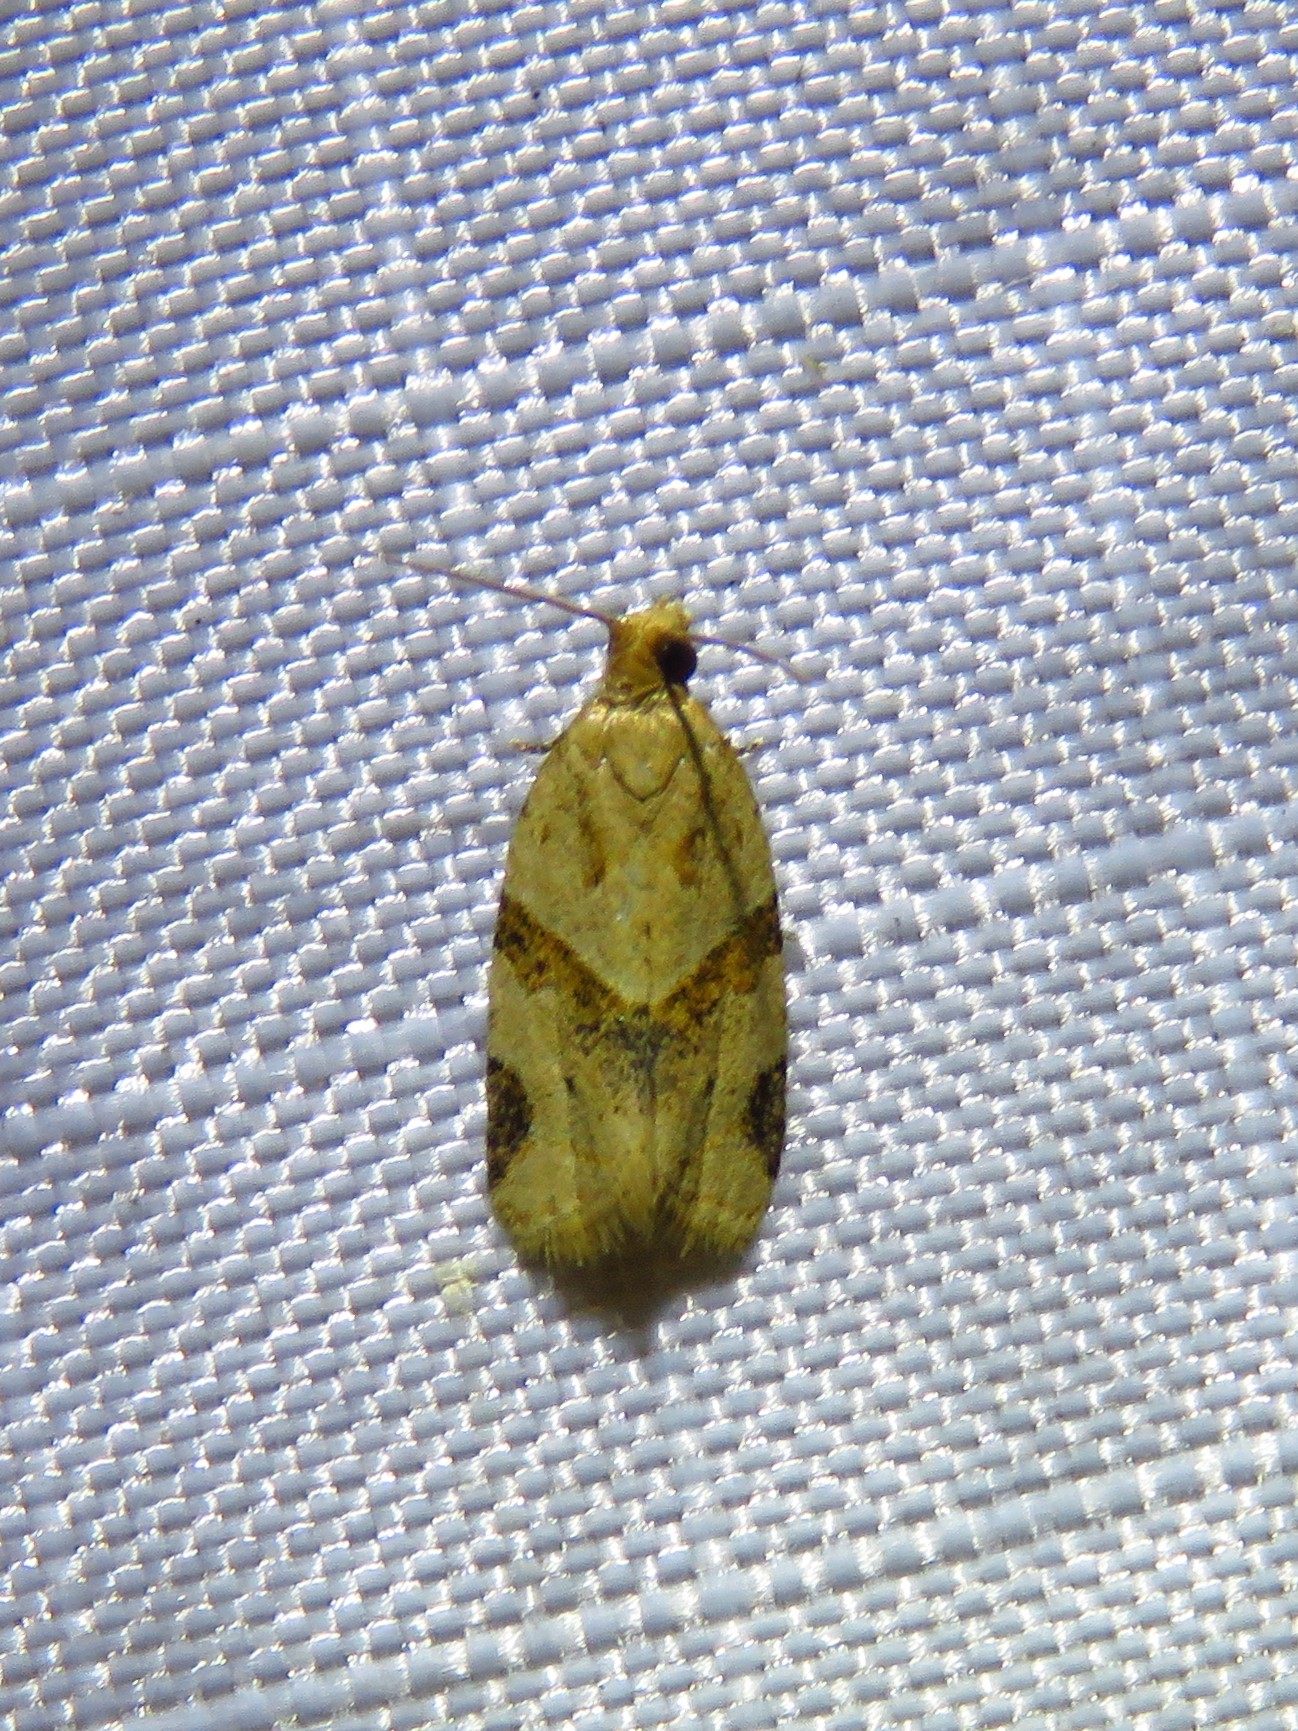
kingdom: Animalia
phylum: Arthropoda
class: Insecta
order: Lepidoptera
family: Tortricidae
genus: Clepsis
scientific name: Clepsis peritana
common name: Garden tortrix
